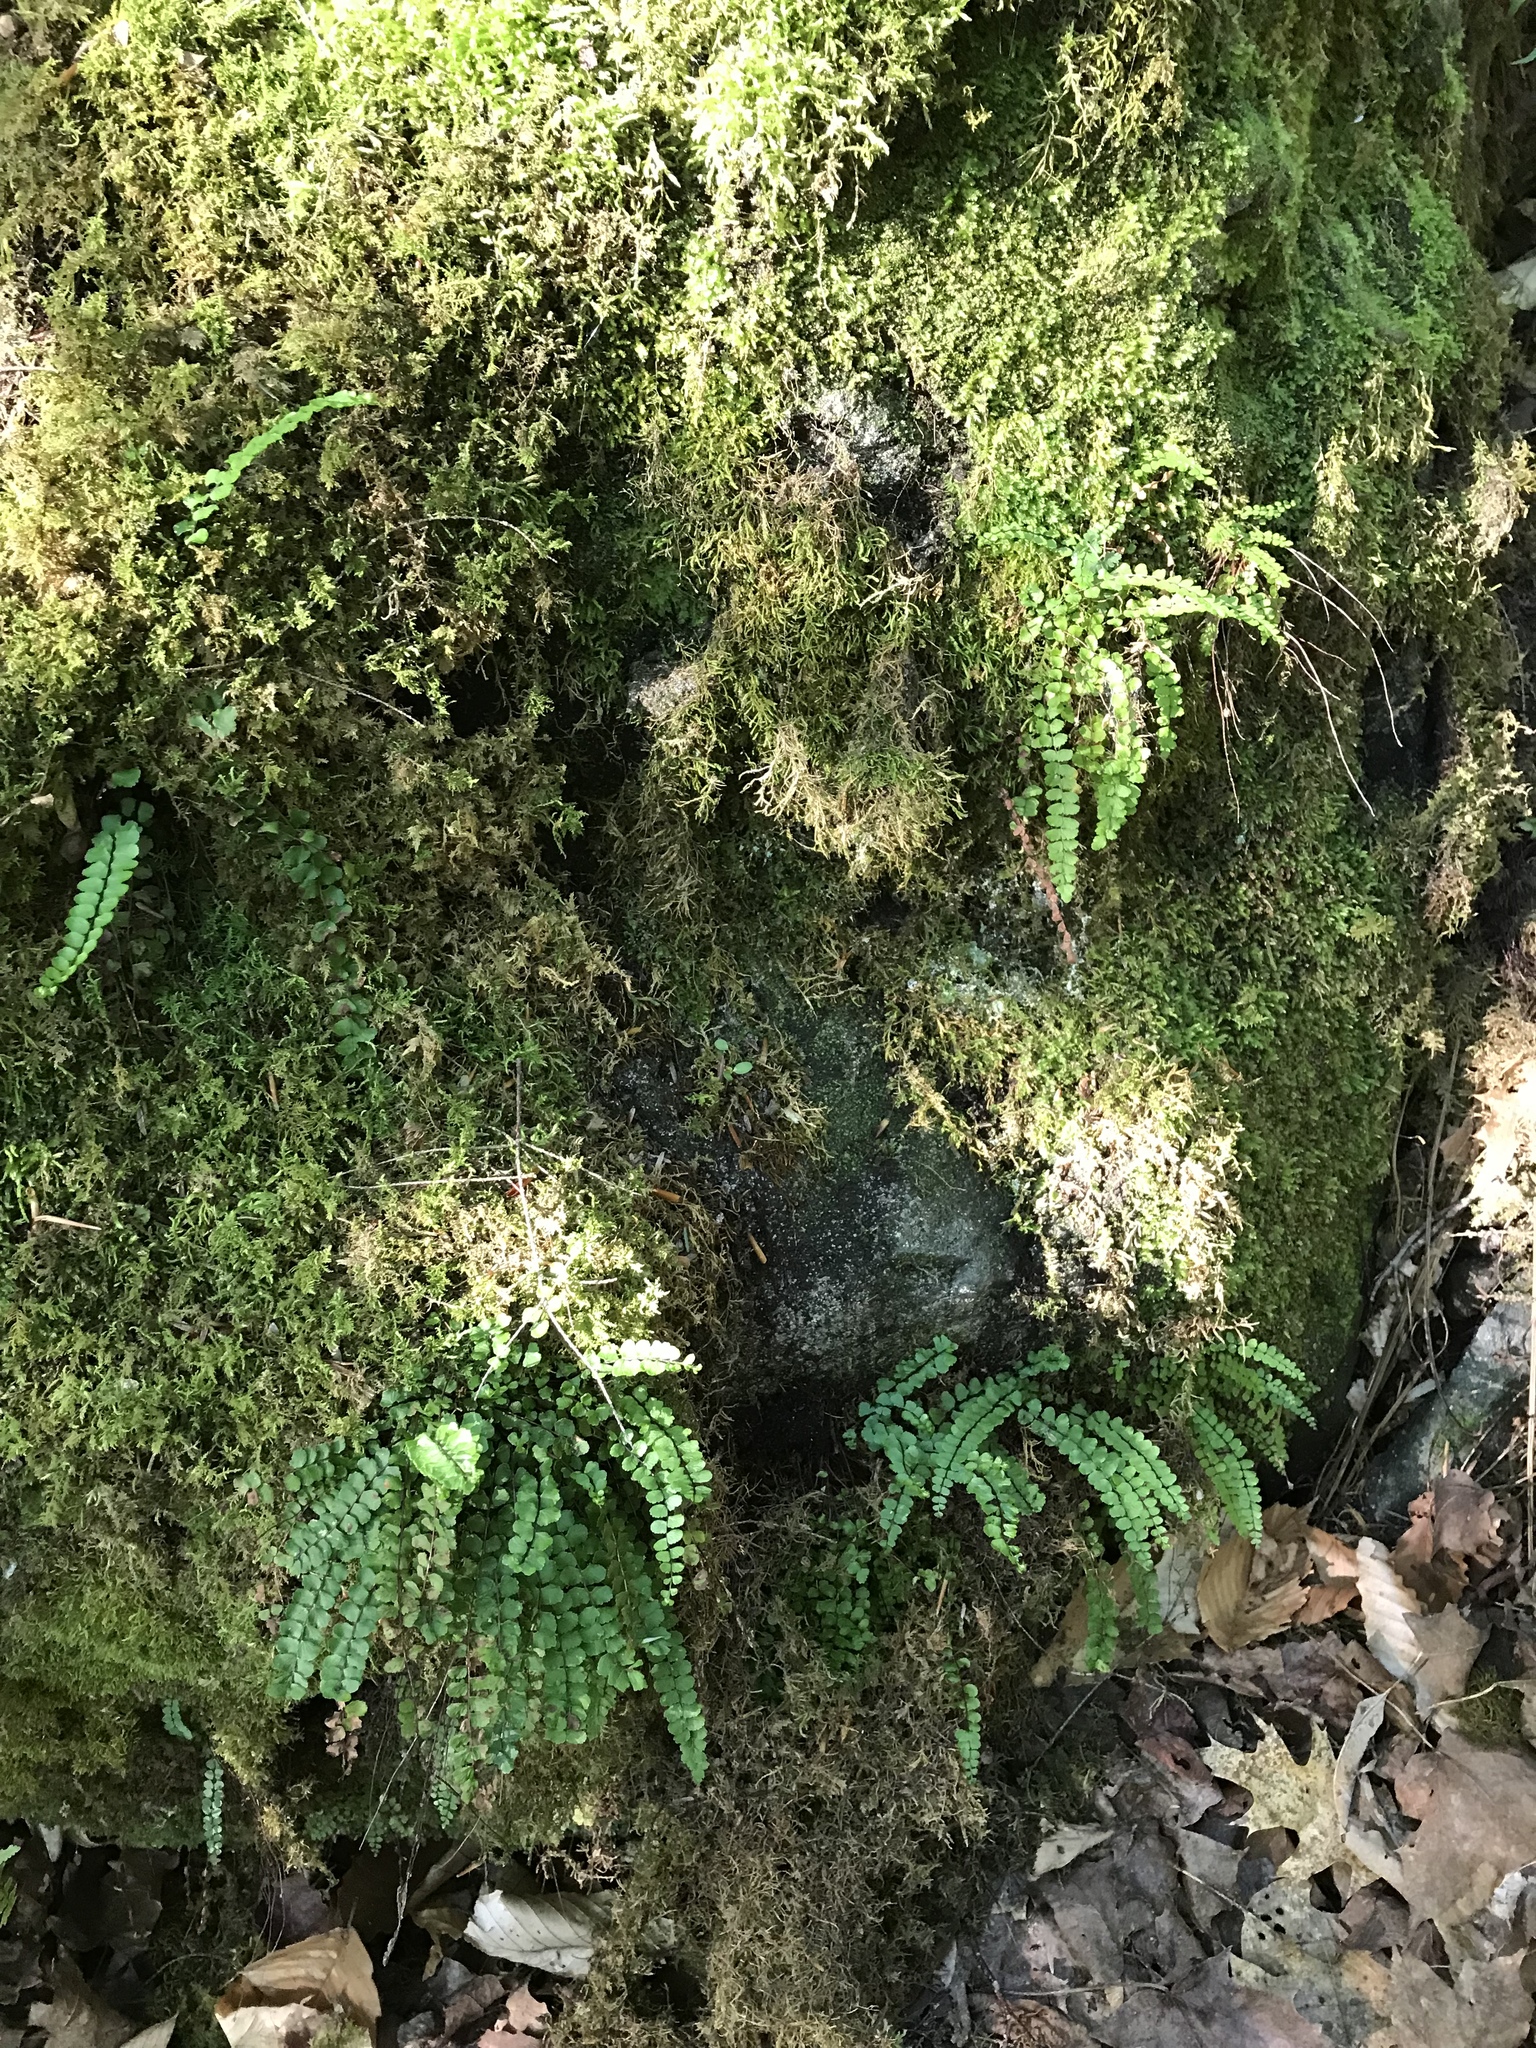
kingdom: Plantae
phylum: Tracheophyta
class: Polypodiopsida
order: Polypodiales
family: Aspleniaceae
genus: Asplenium
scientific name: Asplenium trichomanes
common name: Maidenhair spleenwort
